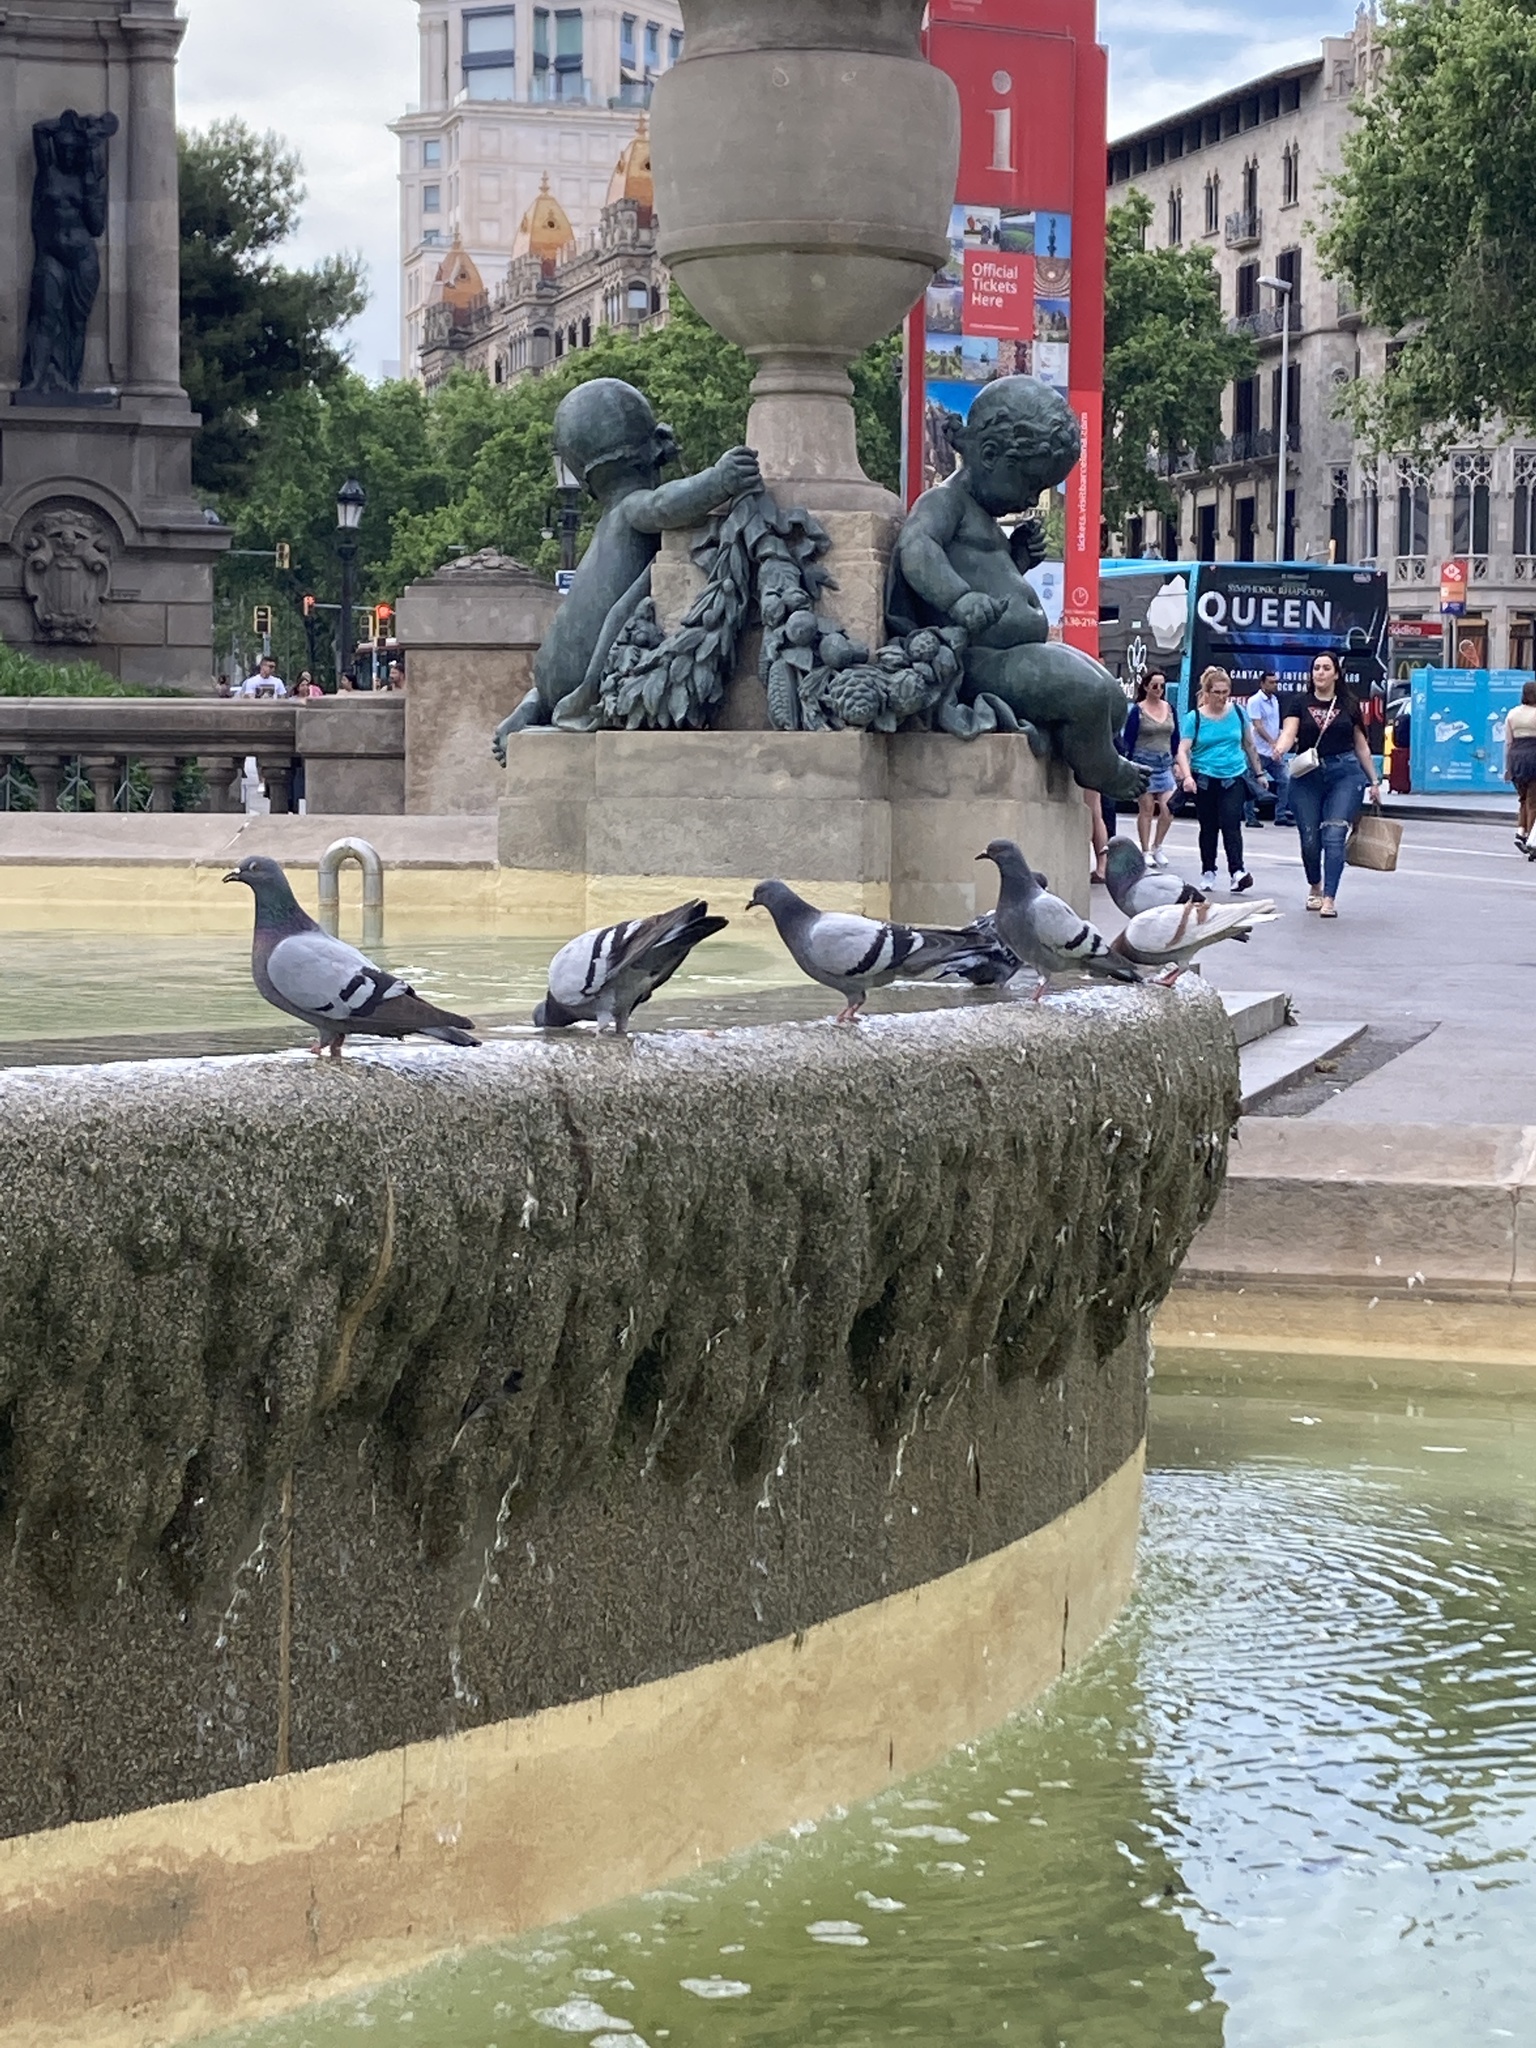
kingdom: Animalia
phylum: Chordata
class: Aves
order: Columbiformes
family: Columbidae
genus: Columba
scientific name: Columba livia
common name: Rock pigeon
